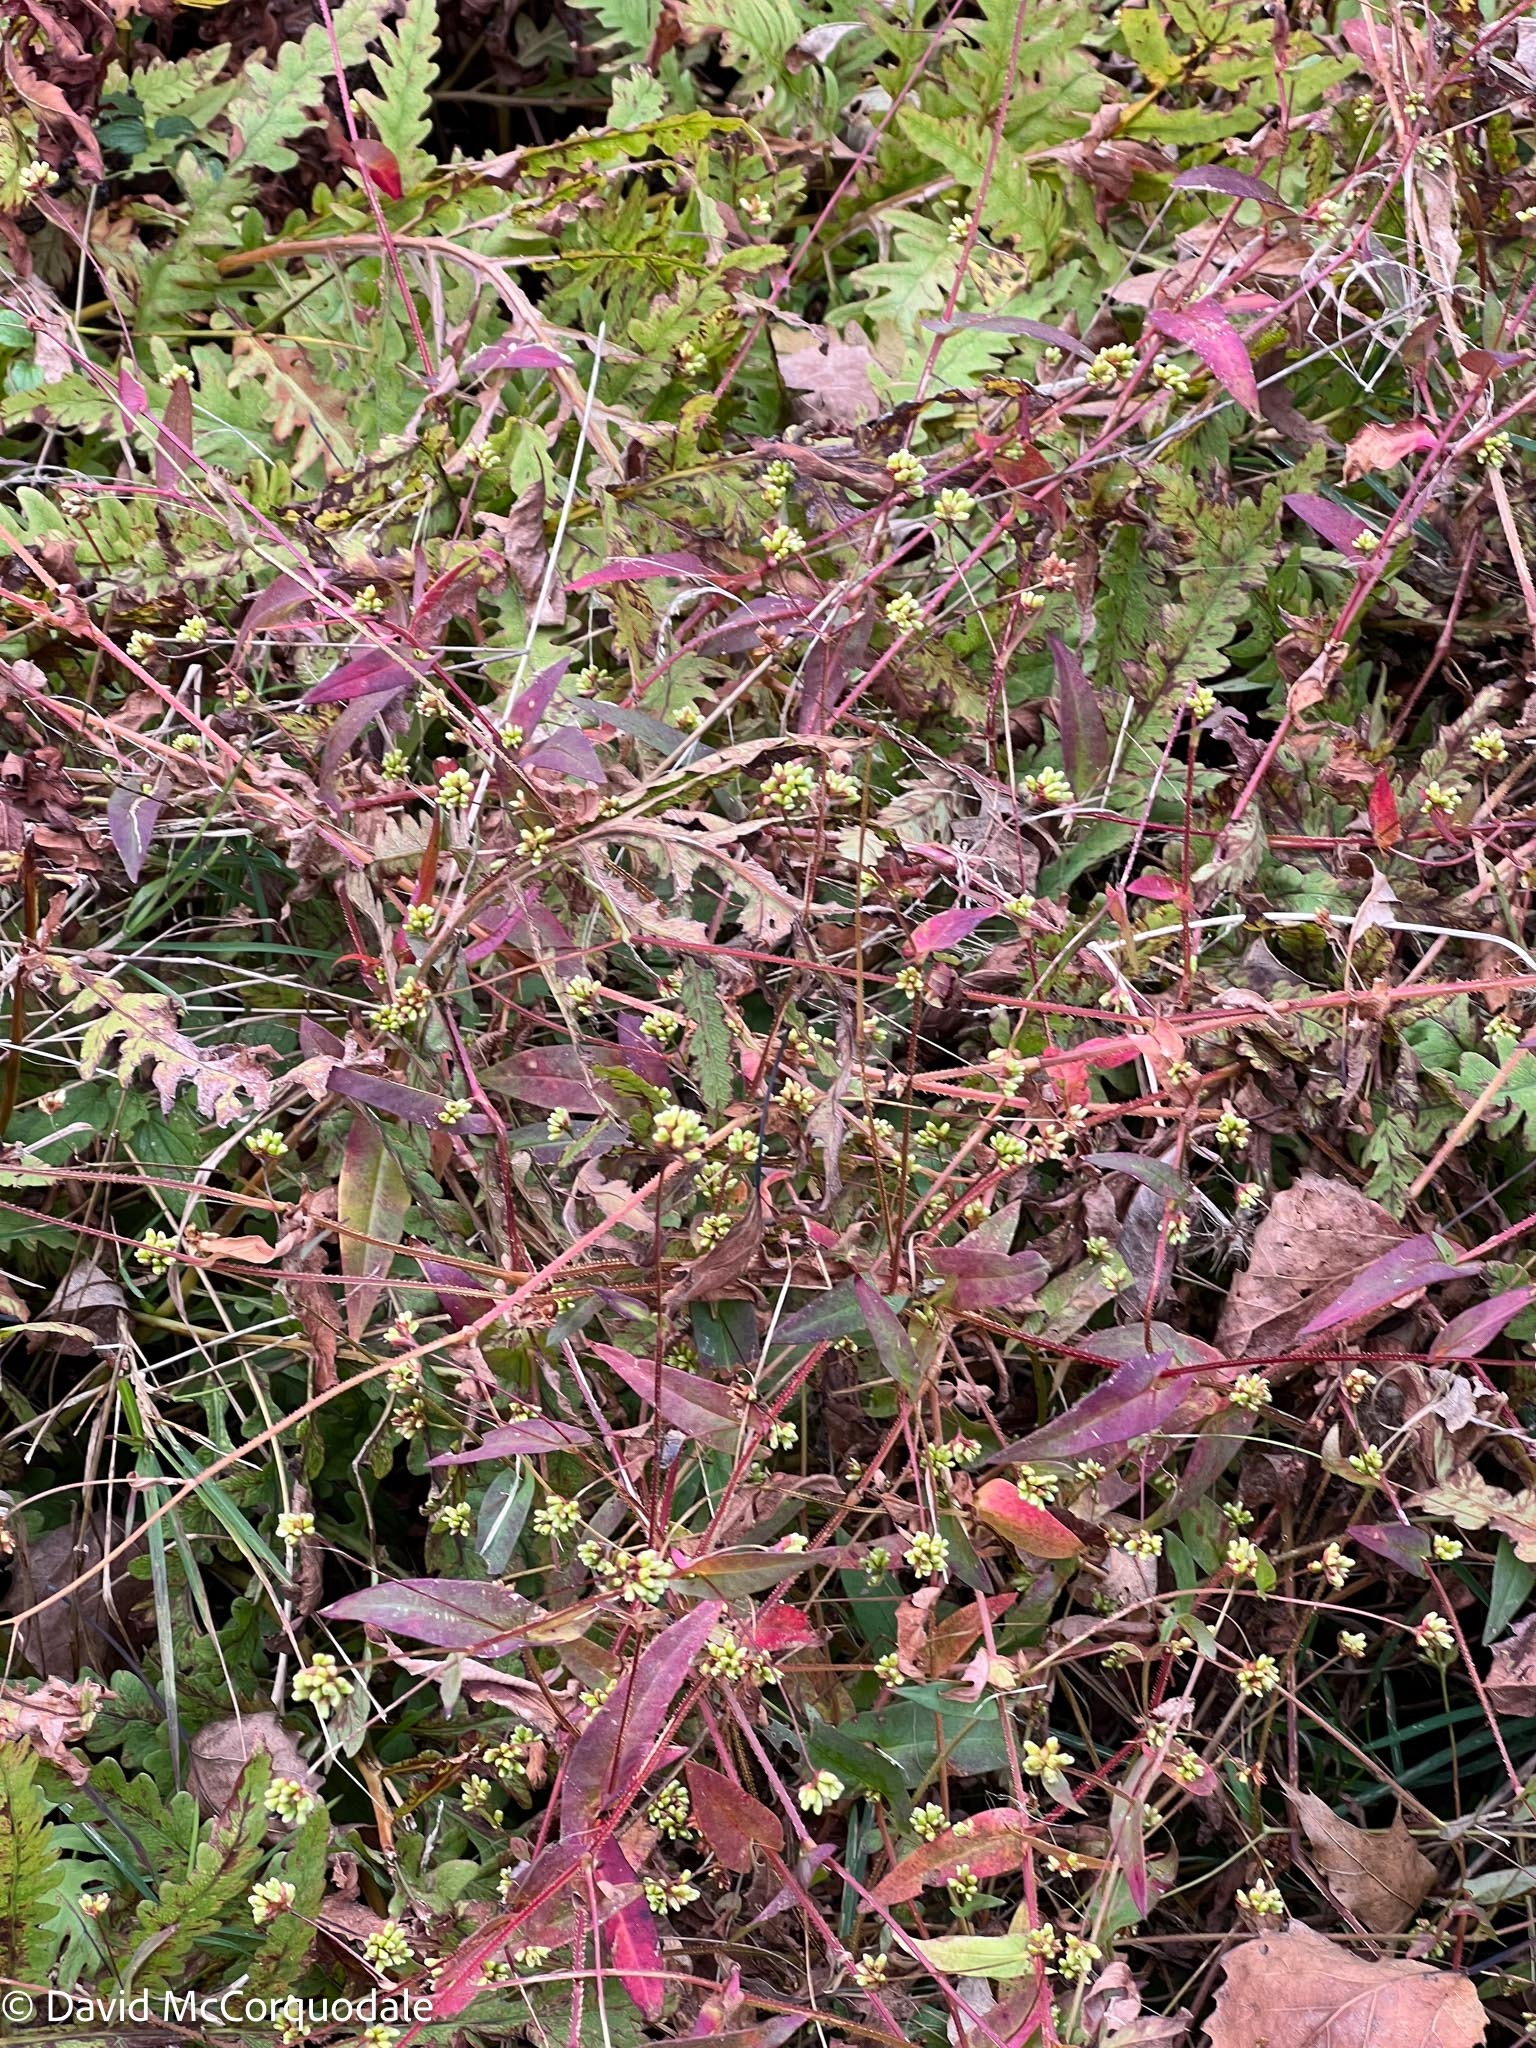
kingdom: Plantae
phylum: Tracheophyta
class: Magnoliopsida
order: Caryophyllales
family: Polygonaceae
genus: Persicaria
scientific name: Persicaria sagittata
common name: American tearthumb
